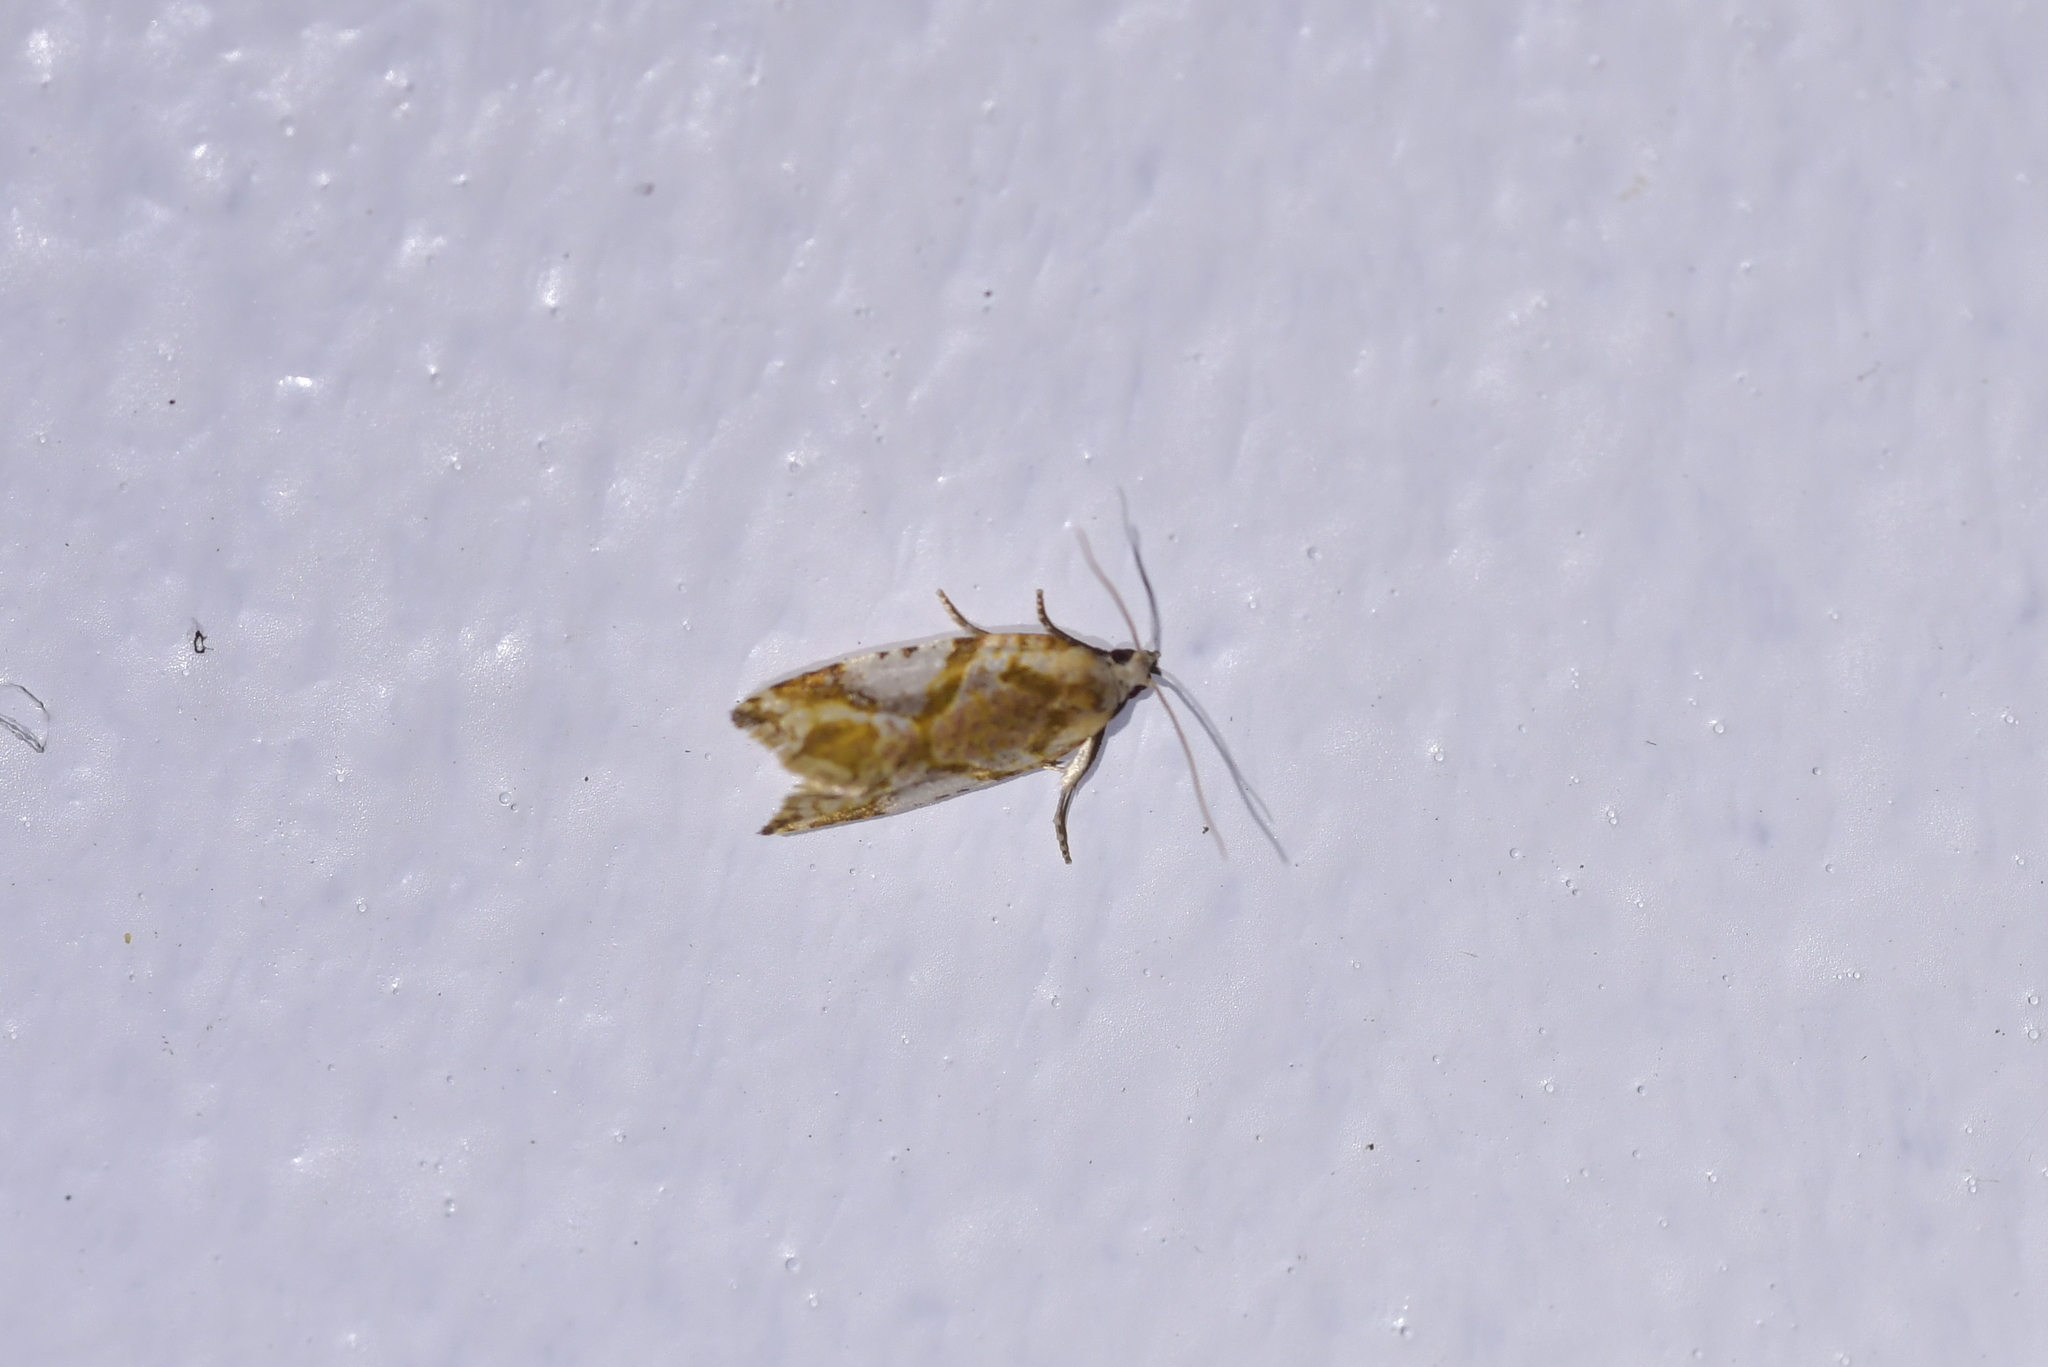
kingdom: Animalia
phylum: Arthropoda
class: Insecta
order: Lepidoptera
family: Tortricidae
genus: Pyrgotis
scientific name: Pyrgotis plagiatana
